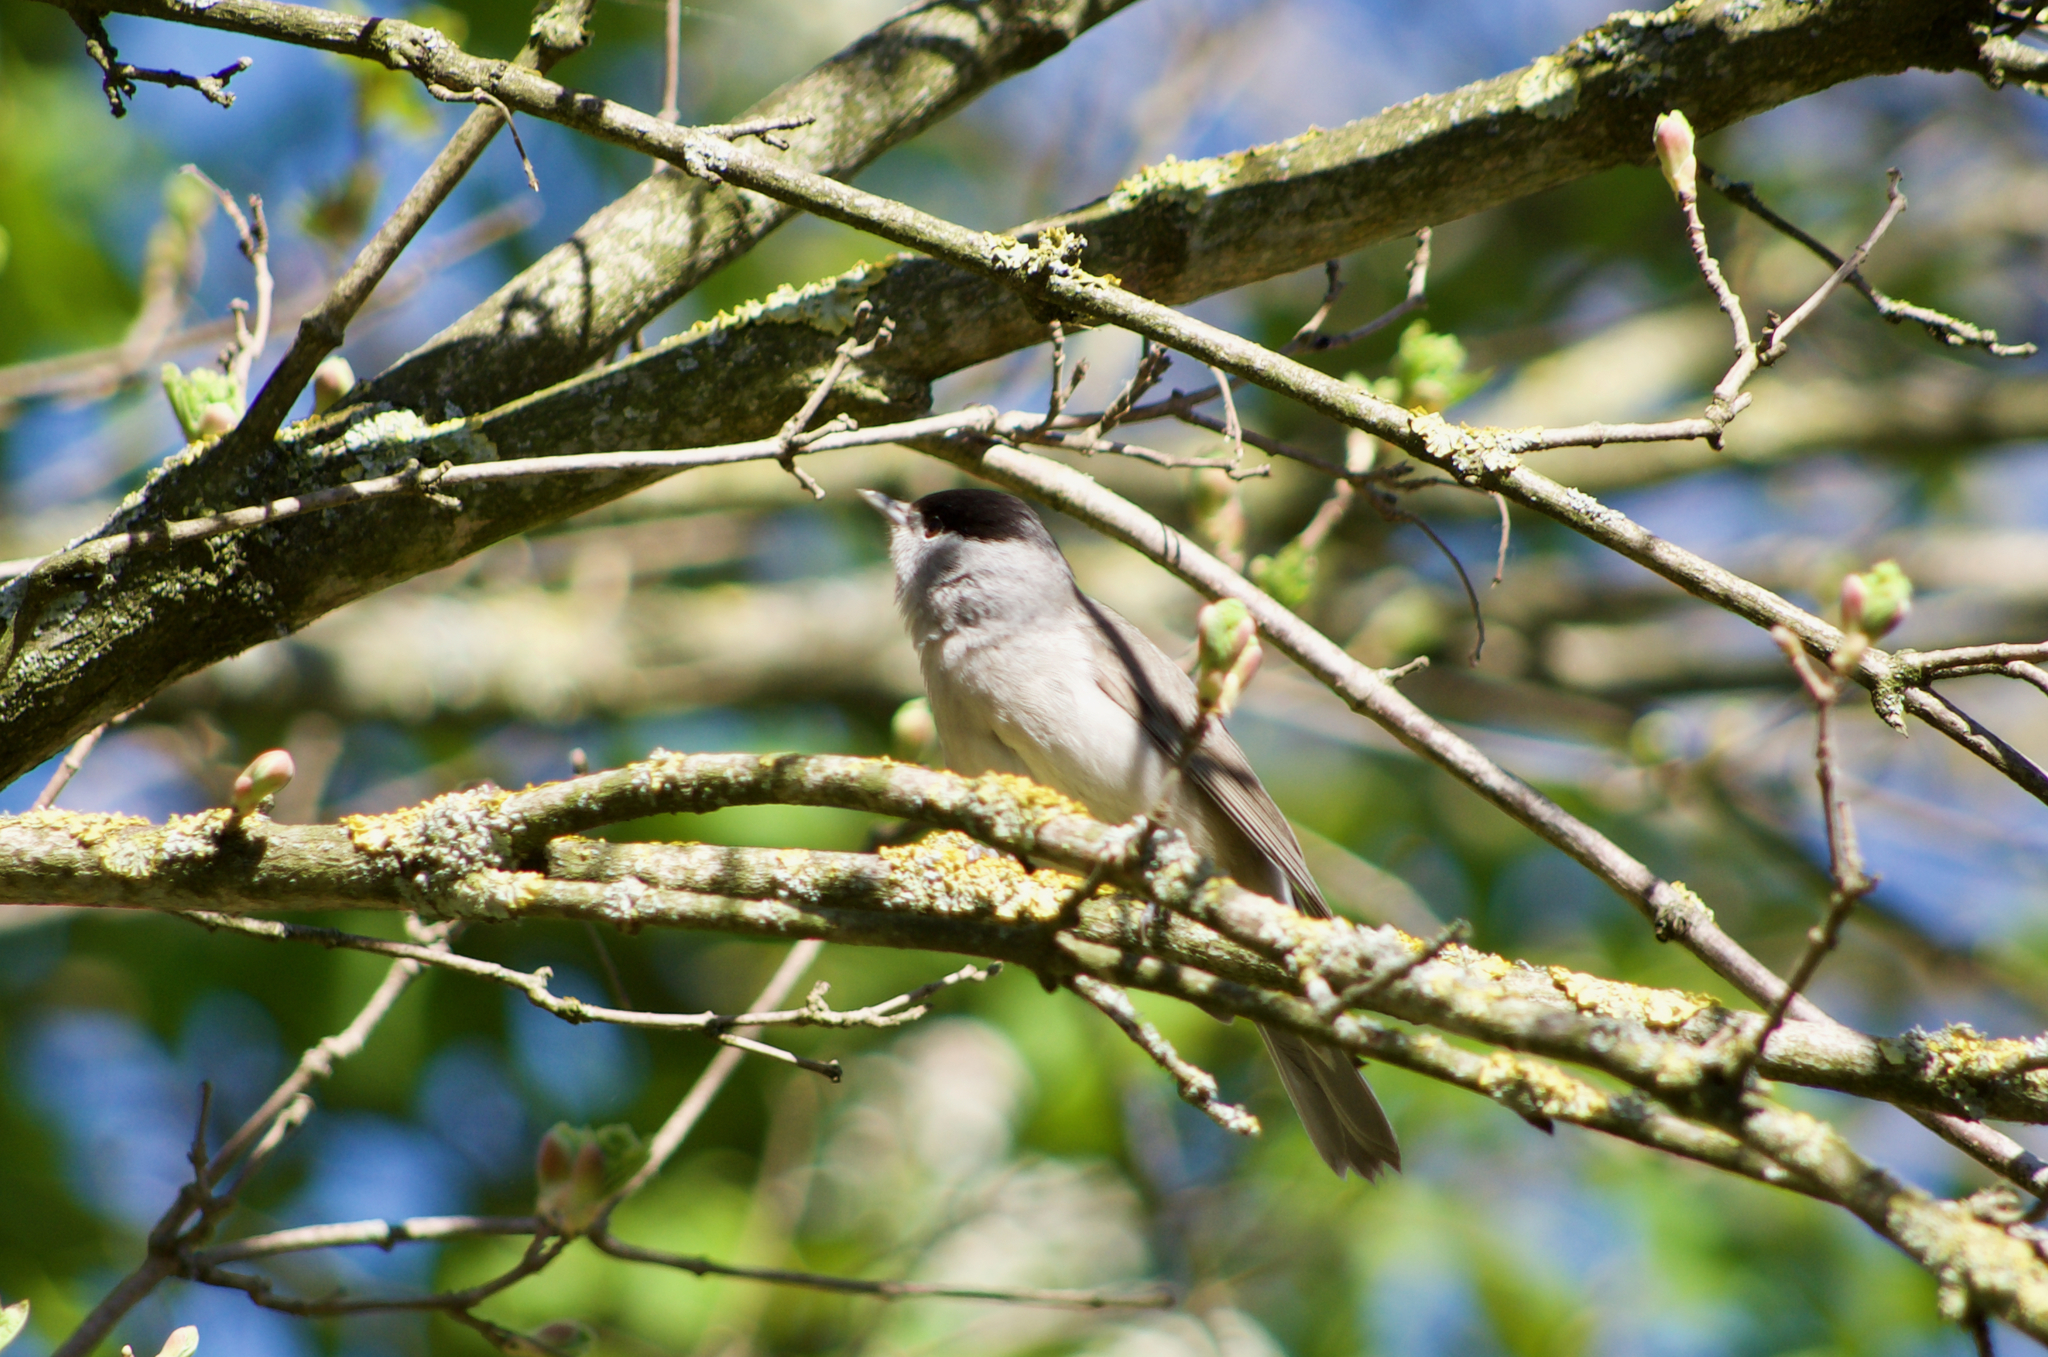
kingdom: Animalia
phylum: Chordata
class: Aves
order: Passeriformes
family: Sylviidae
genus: Sylvia
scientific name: Sylvia atricapilla
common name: Eurasian blackcap
